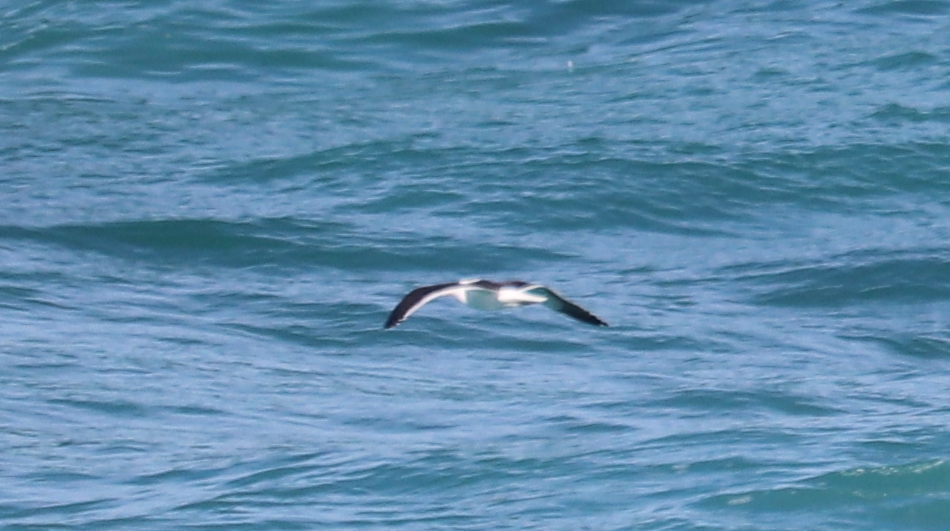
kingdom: Animalia
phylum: Chordata
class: Aves
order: Charadriiformes
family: Laridae
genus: Larus
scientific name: Larus dominicanus
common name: Kelp gull
